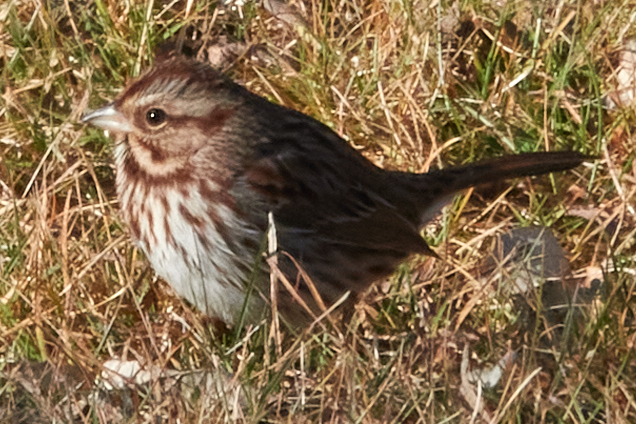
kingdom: Animalia
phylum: Chordata
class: Aves
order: Passeriformes
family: Passerellidae
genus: Melospiza
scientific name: Melospiza melodia
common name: Song sparrow
